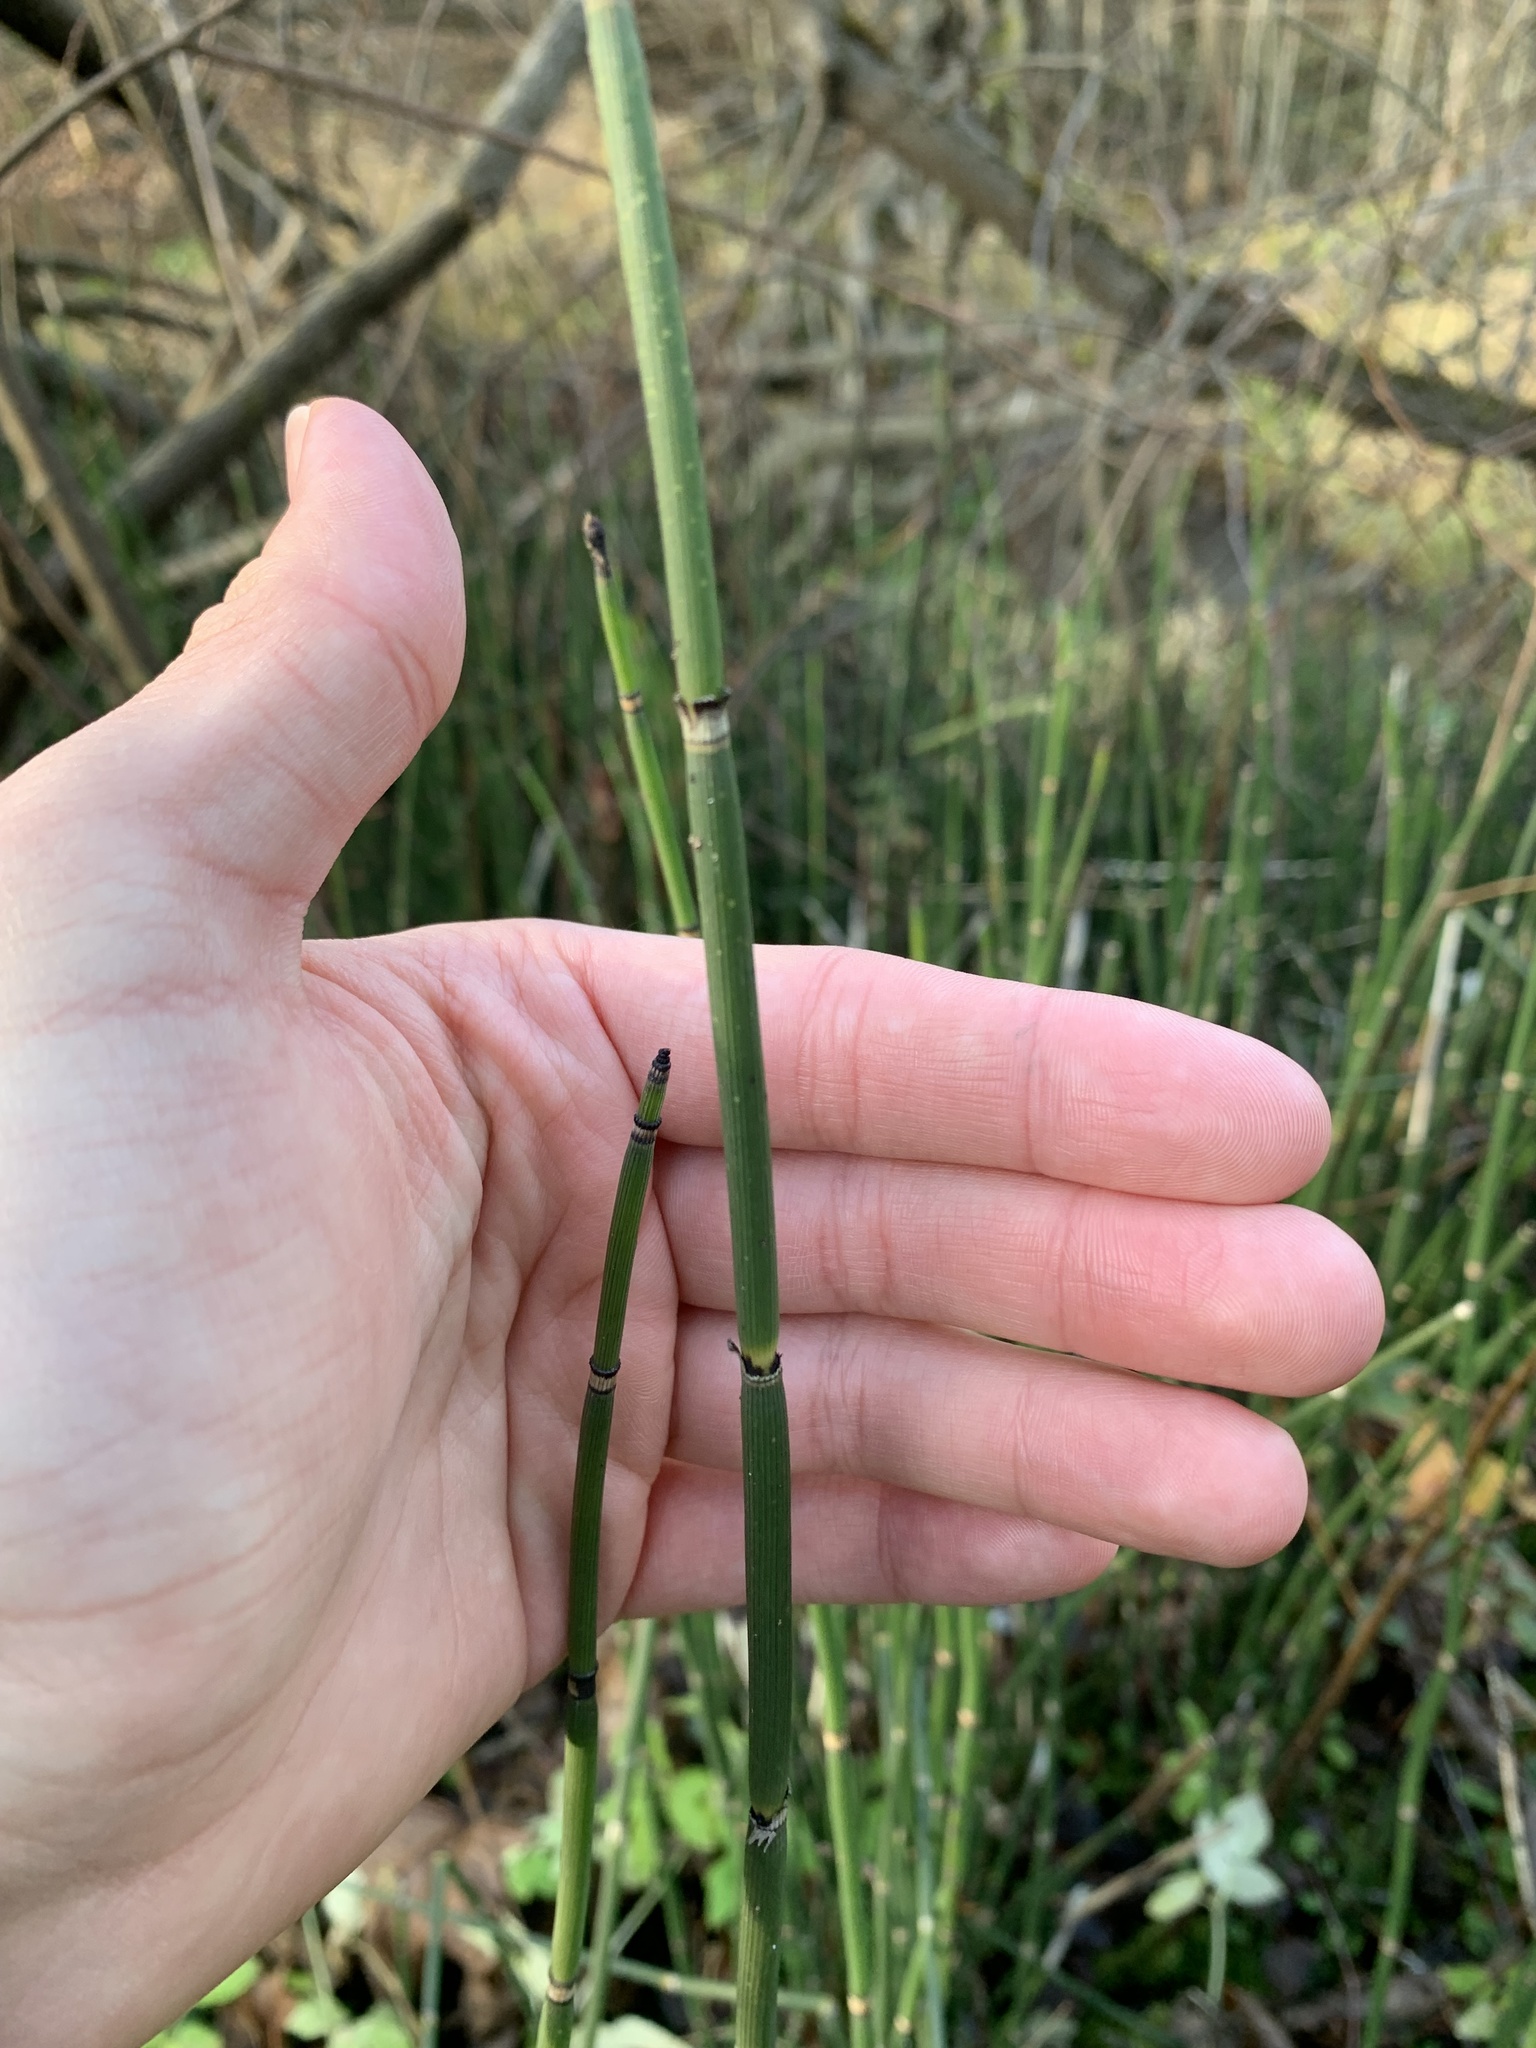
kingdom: Plantae
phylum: Tracheophyta
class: Polypodiopsida
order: Equisetales
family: Equisetaceae
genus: Equisetum
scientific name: Equisetum hyemale
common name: Rough horsetail
